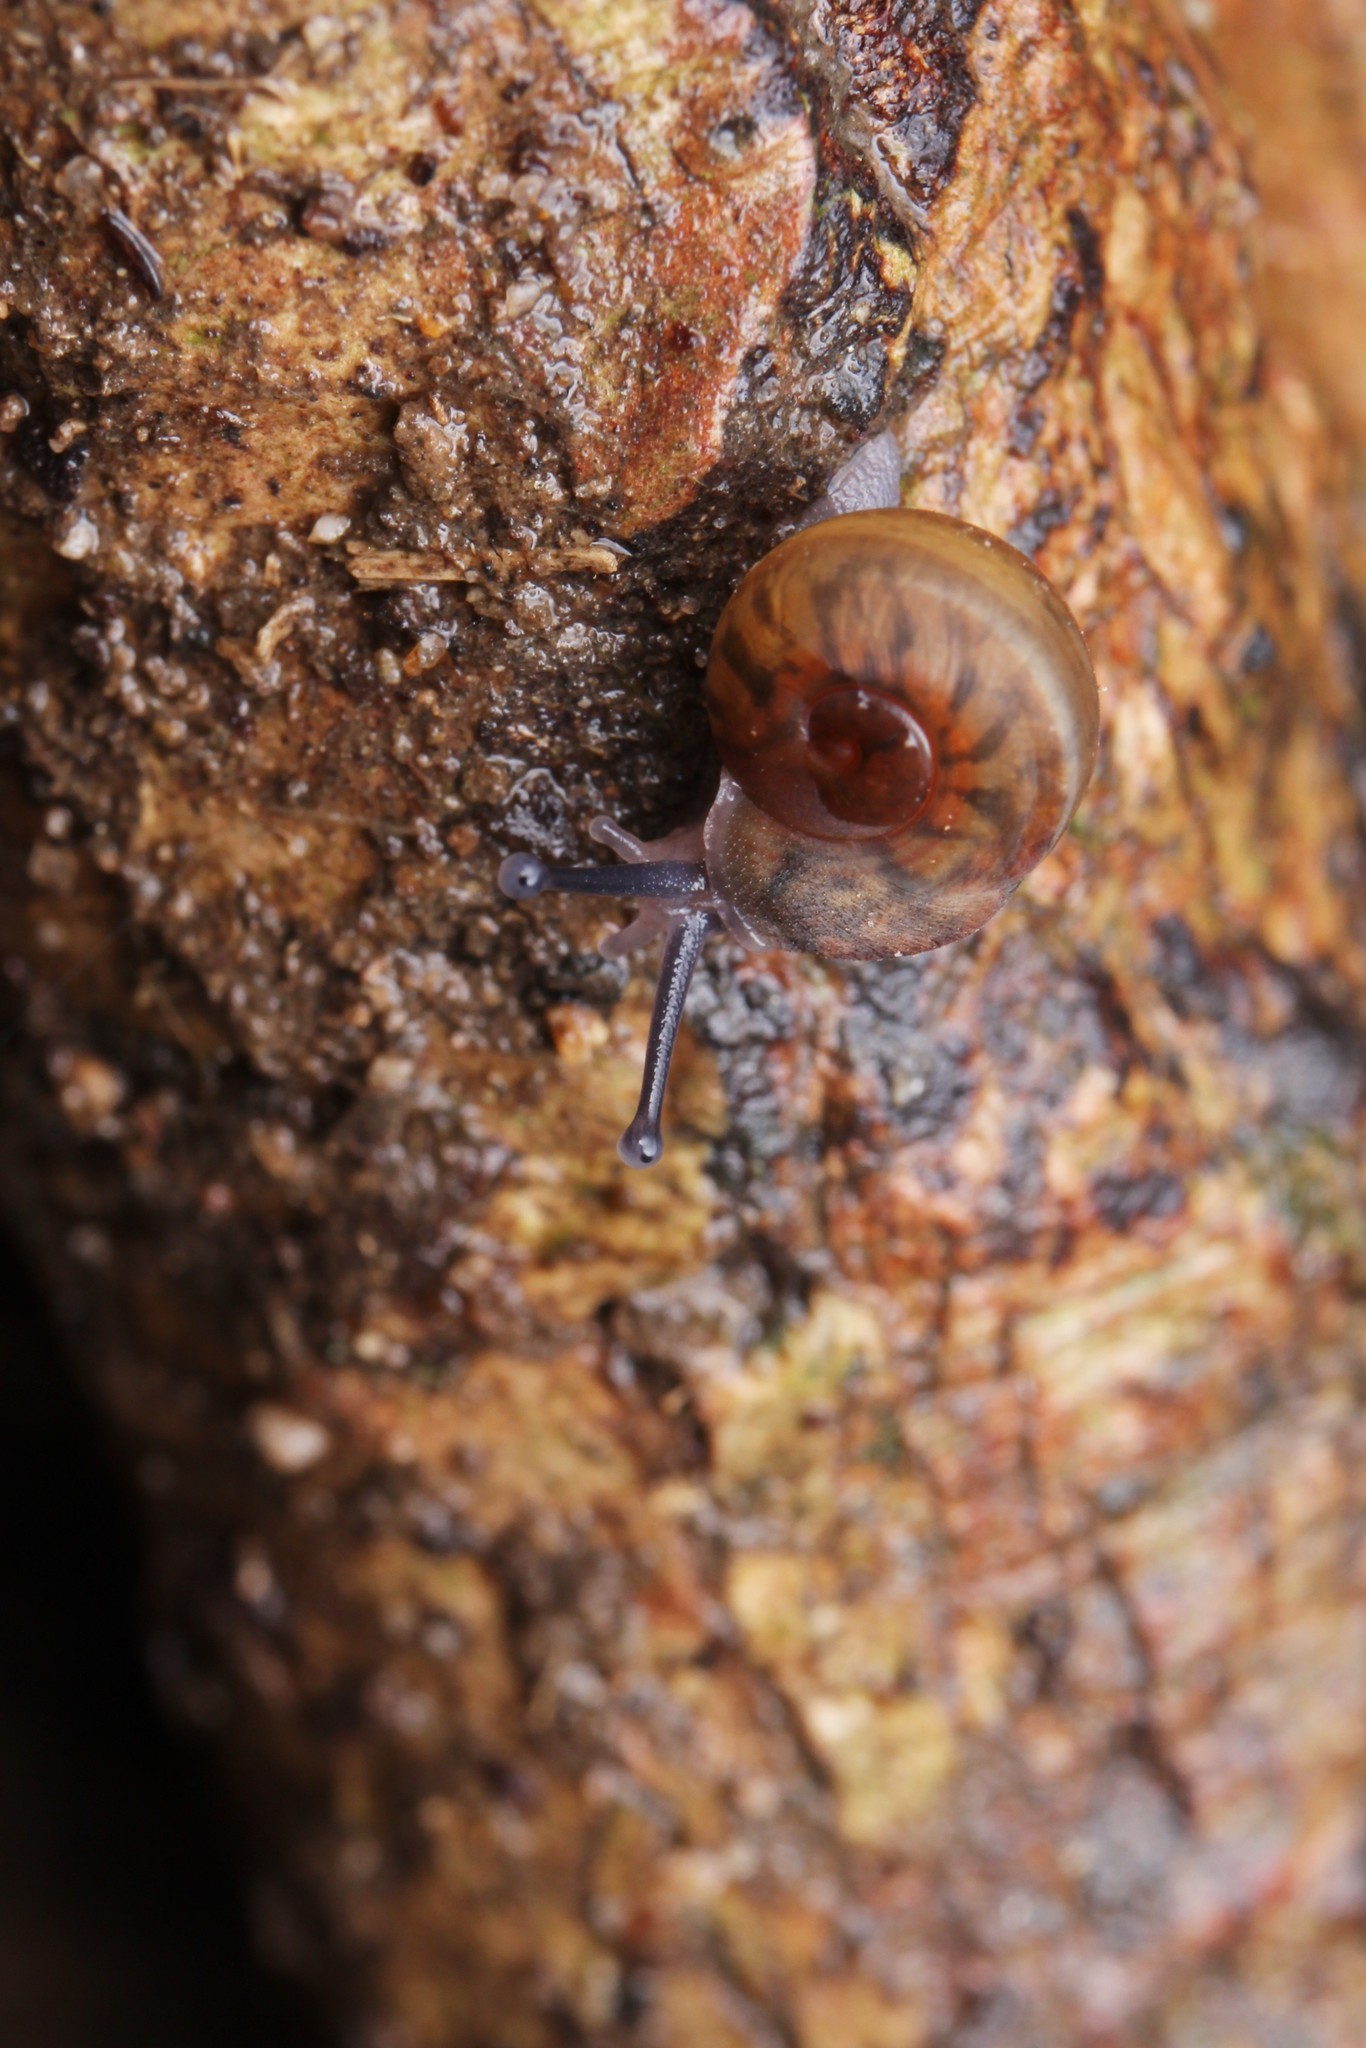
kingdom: Animalia
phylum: Mollusca
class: Gastropoda
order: Stylommatophora
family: Camaenidae
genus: Trichochloritis
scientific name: Trichochloritis hungerfordiana
